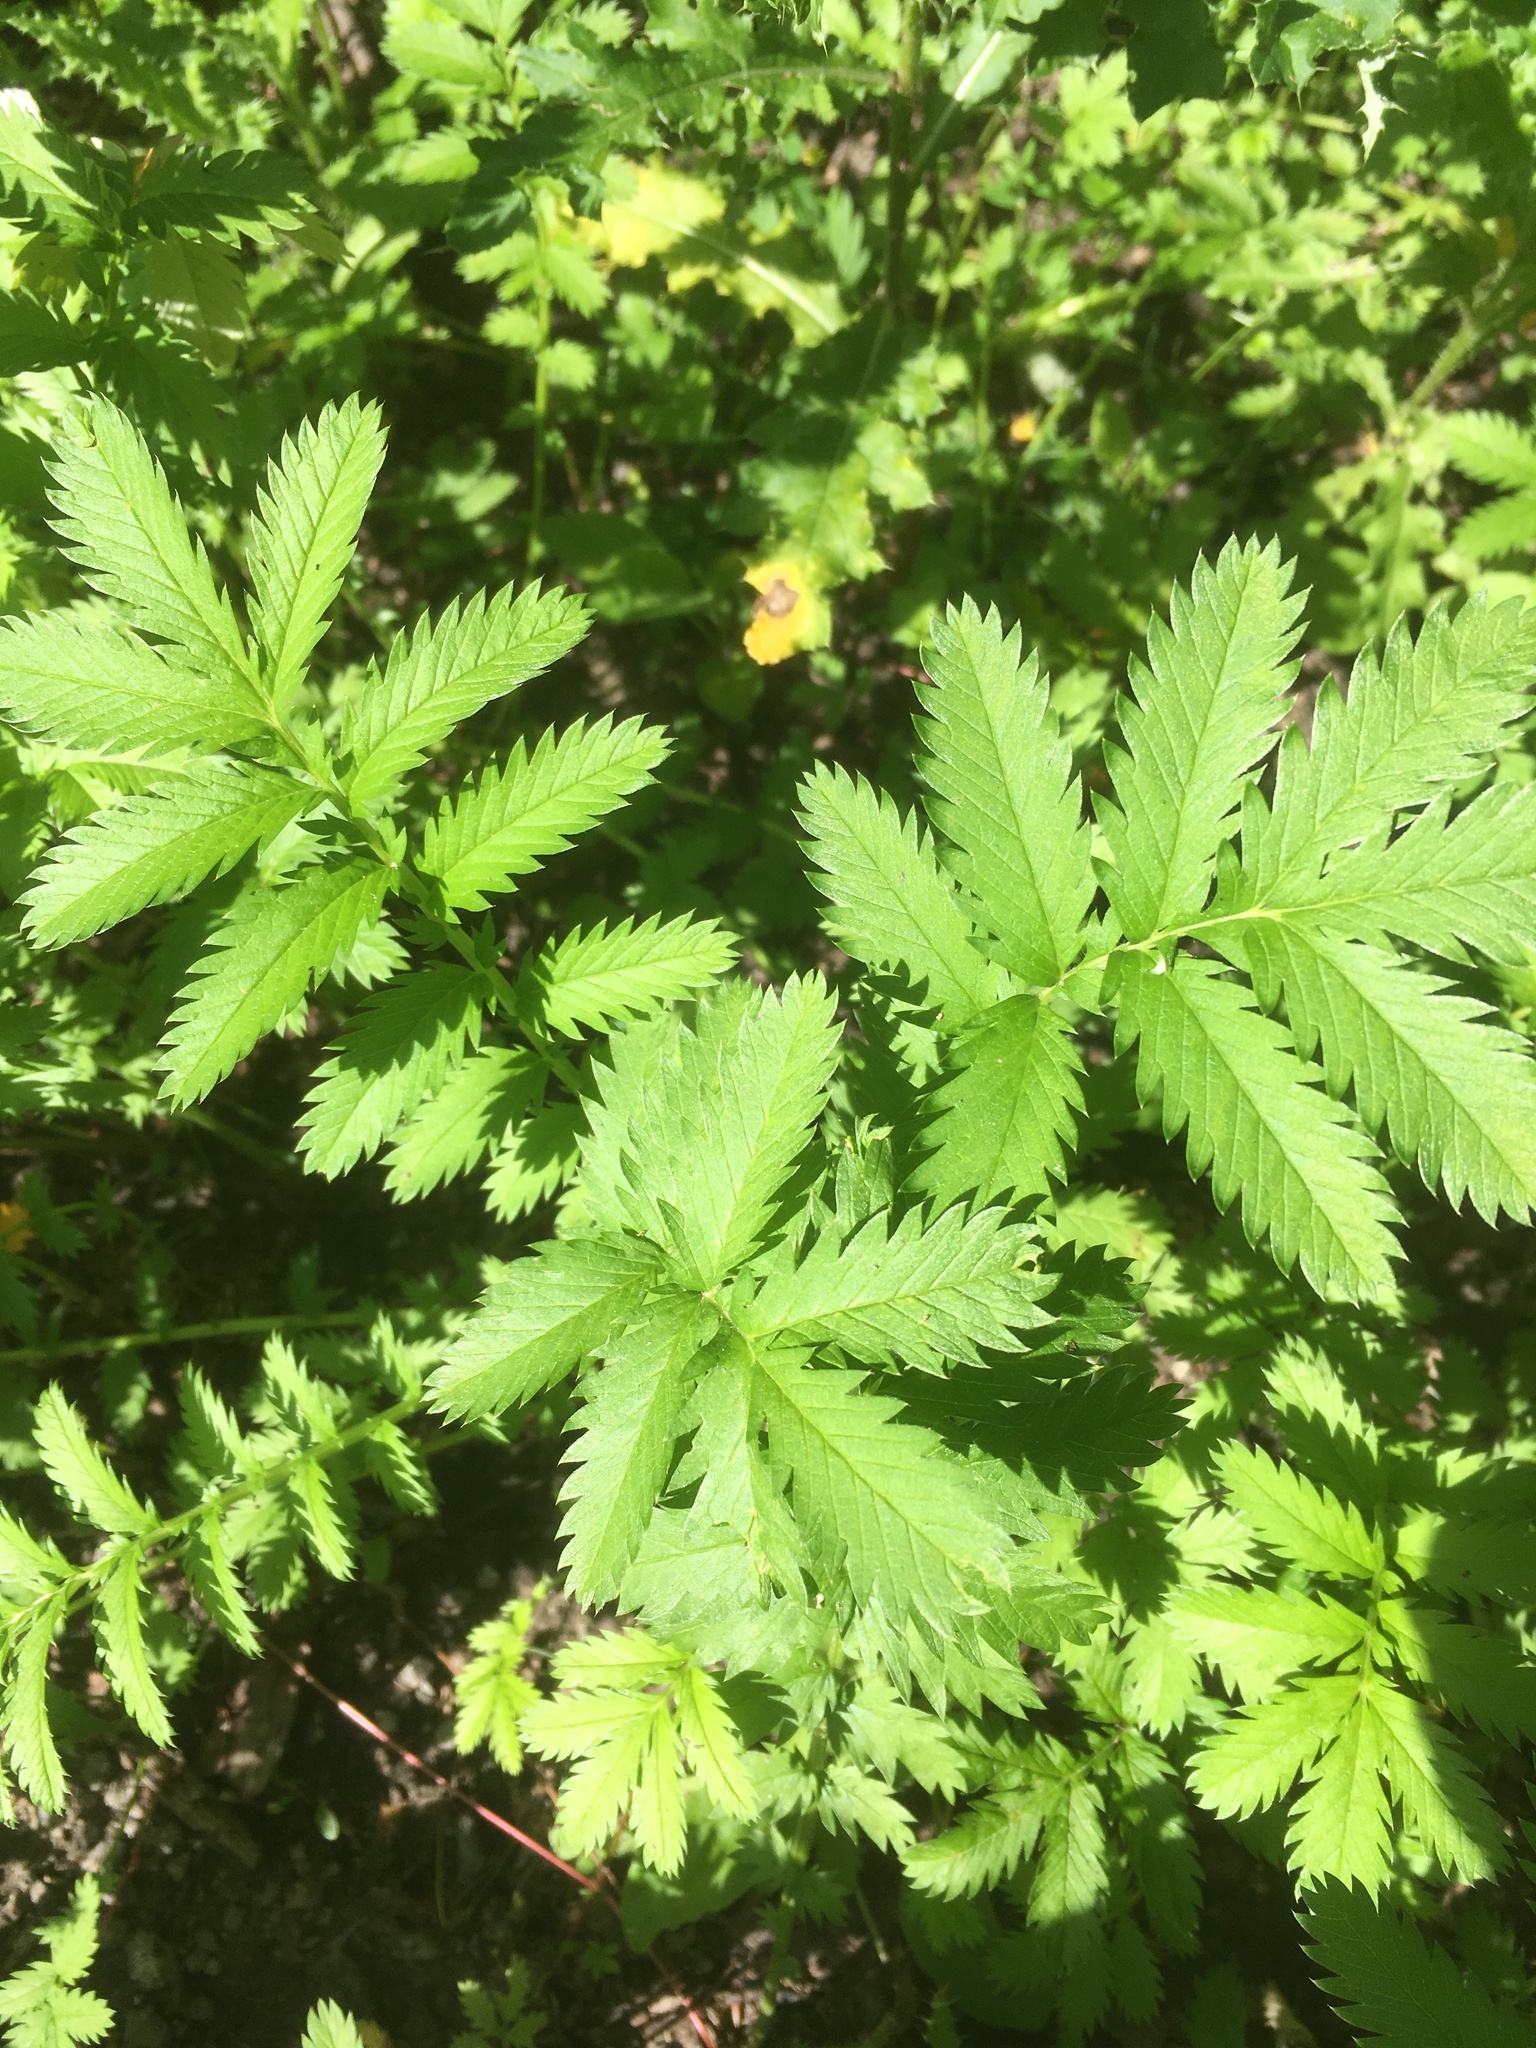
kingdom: Plantae
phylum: Tracheophyta
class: Magnoliopsida
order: Rosales
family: Rosaceae
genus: Argentina
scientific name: Argentina anserina
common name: Common silverweed
